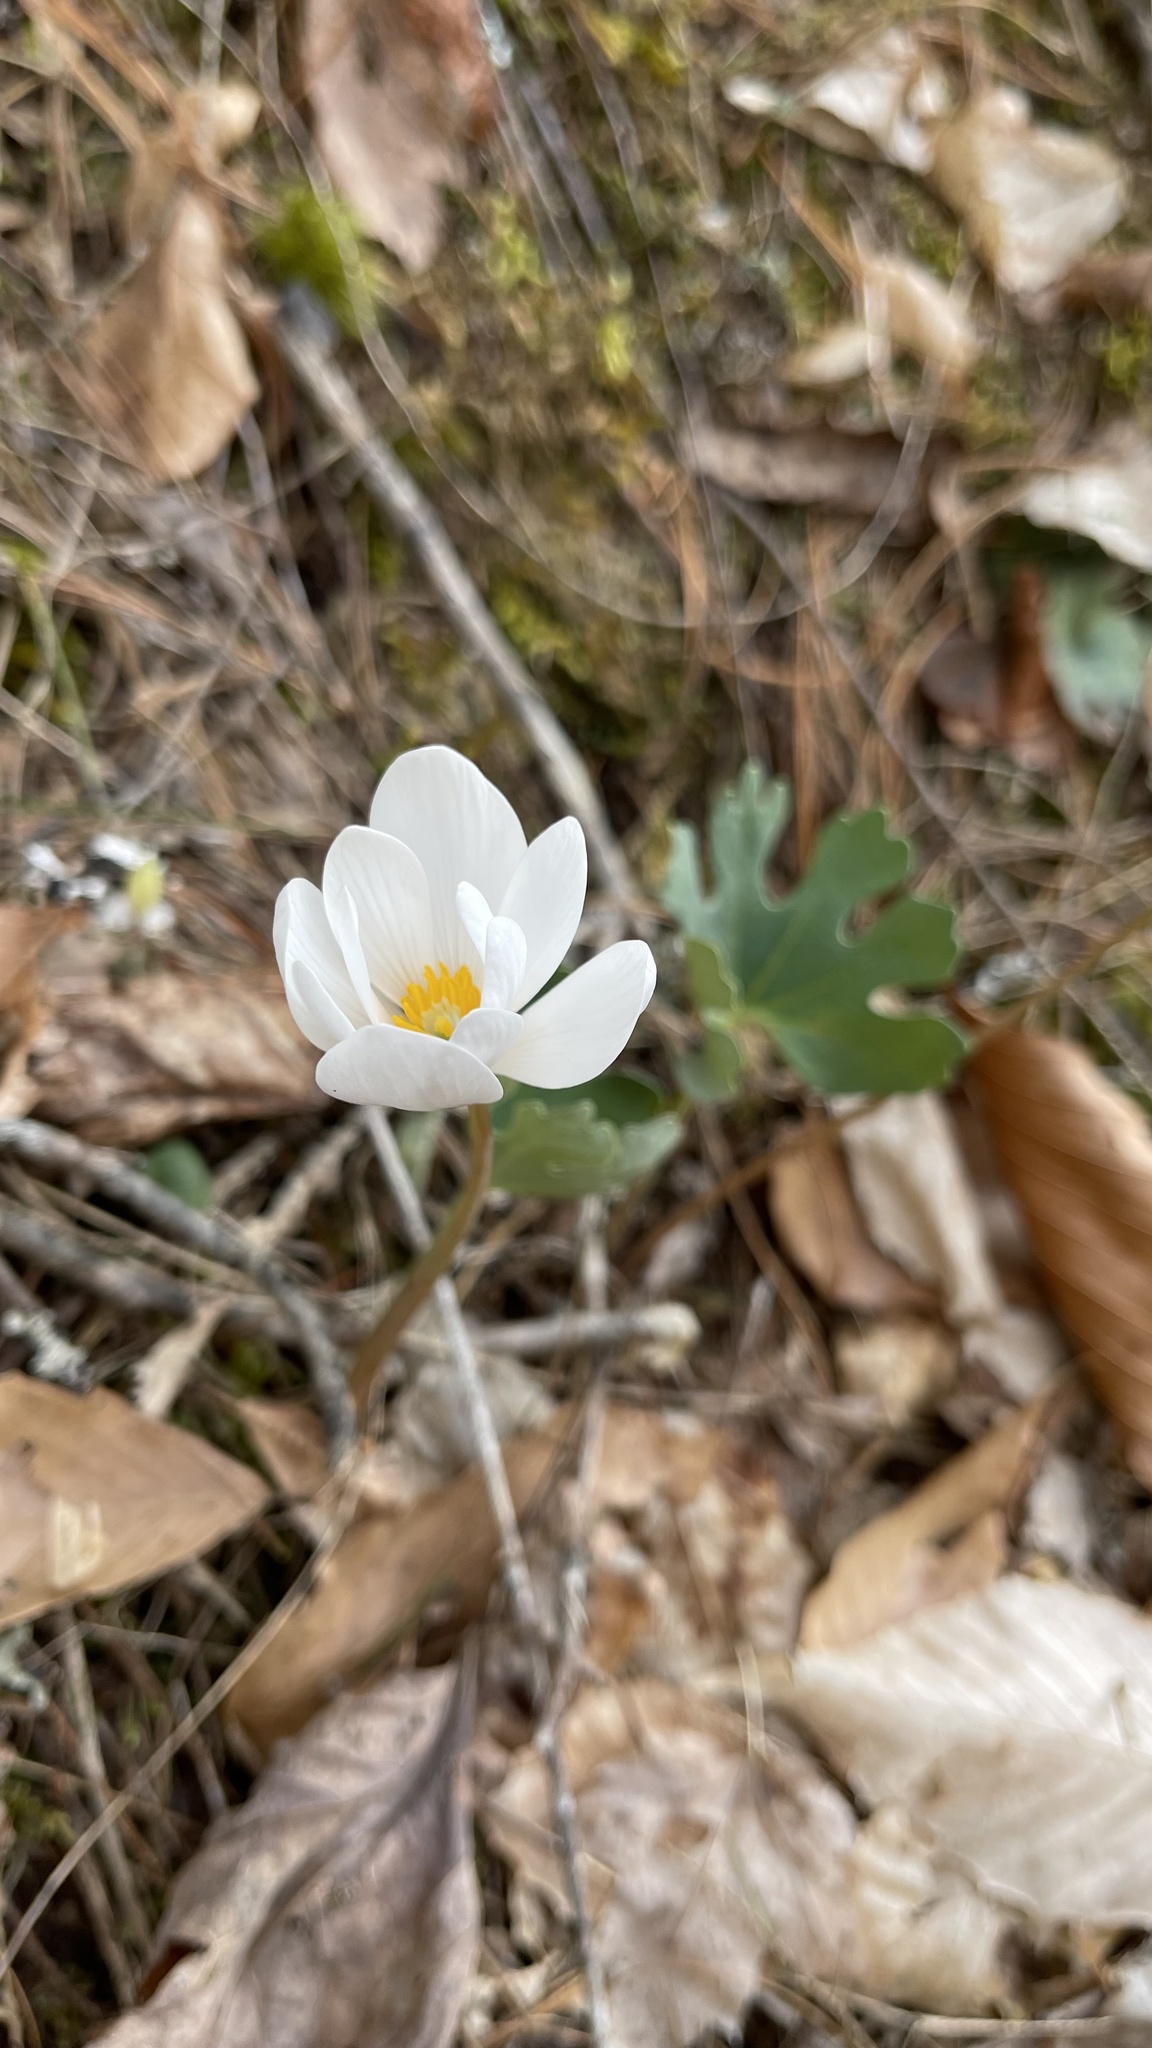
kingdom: Plantae
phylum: Tracheophyta
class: Magnoliopsida
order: Ranunculales
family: Papaveraceae
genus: Sanguinaria
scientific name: Sanguinaria canadensis
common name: Bloodroot
